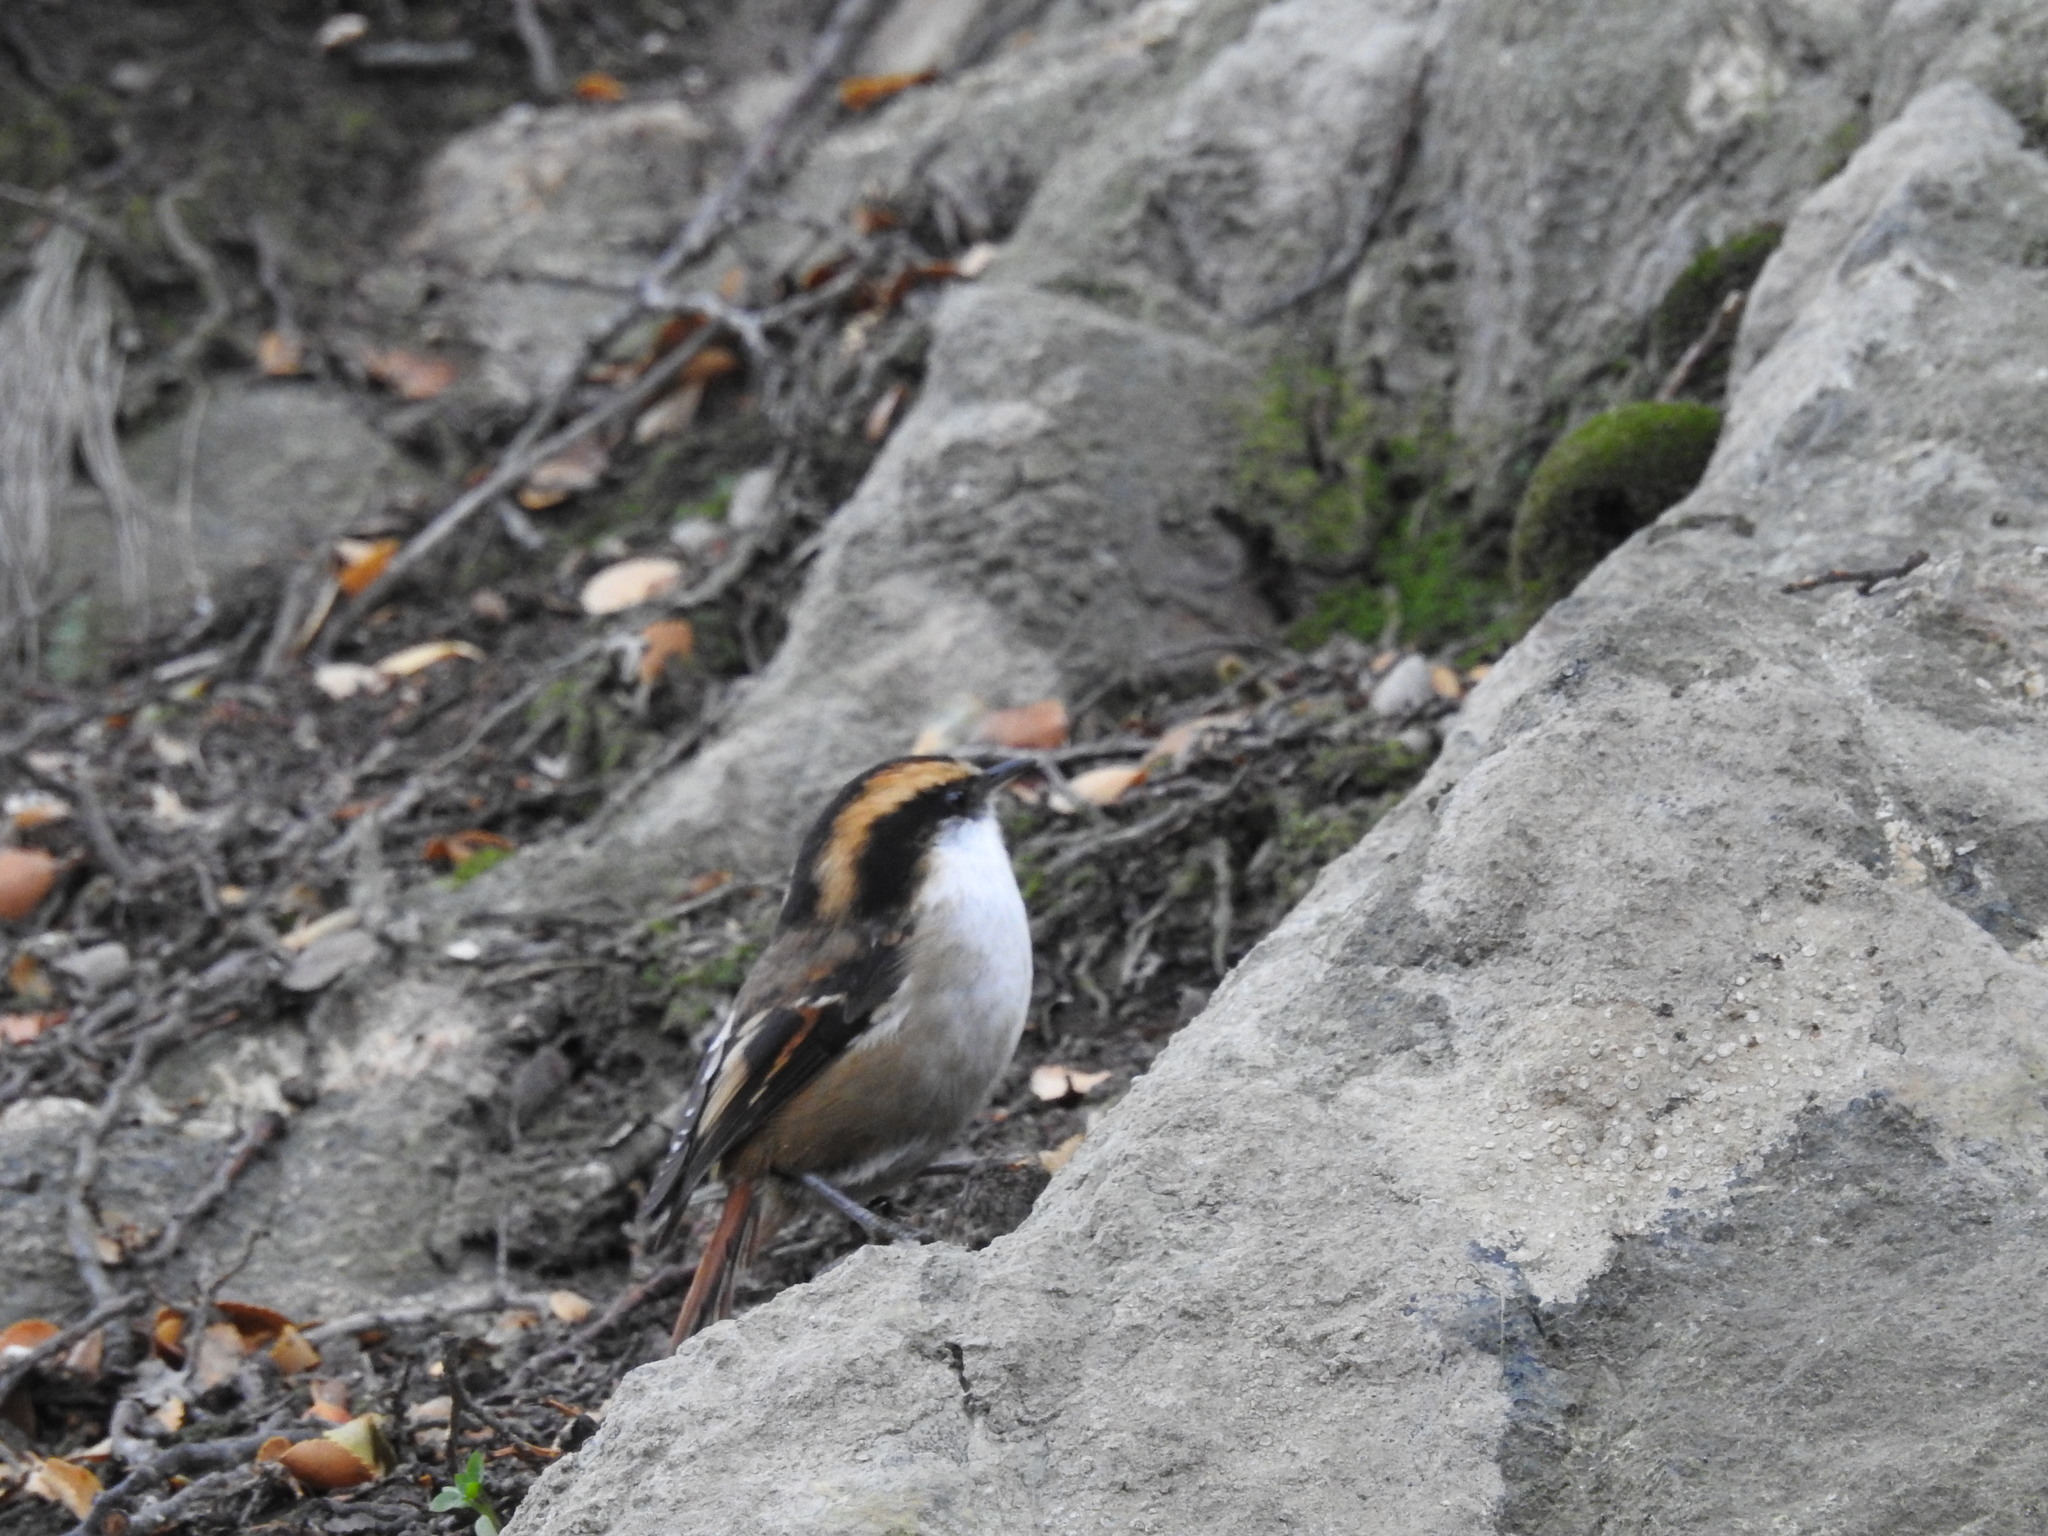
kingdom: Animalia
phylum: Chordata
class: Aves
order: Passeriformes
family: Furnariidae
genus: Aphrastura
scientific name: Aphrastura spinicauda
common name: Thorn-tailed rayadito
